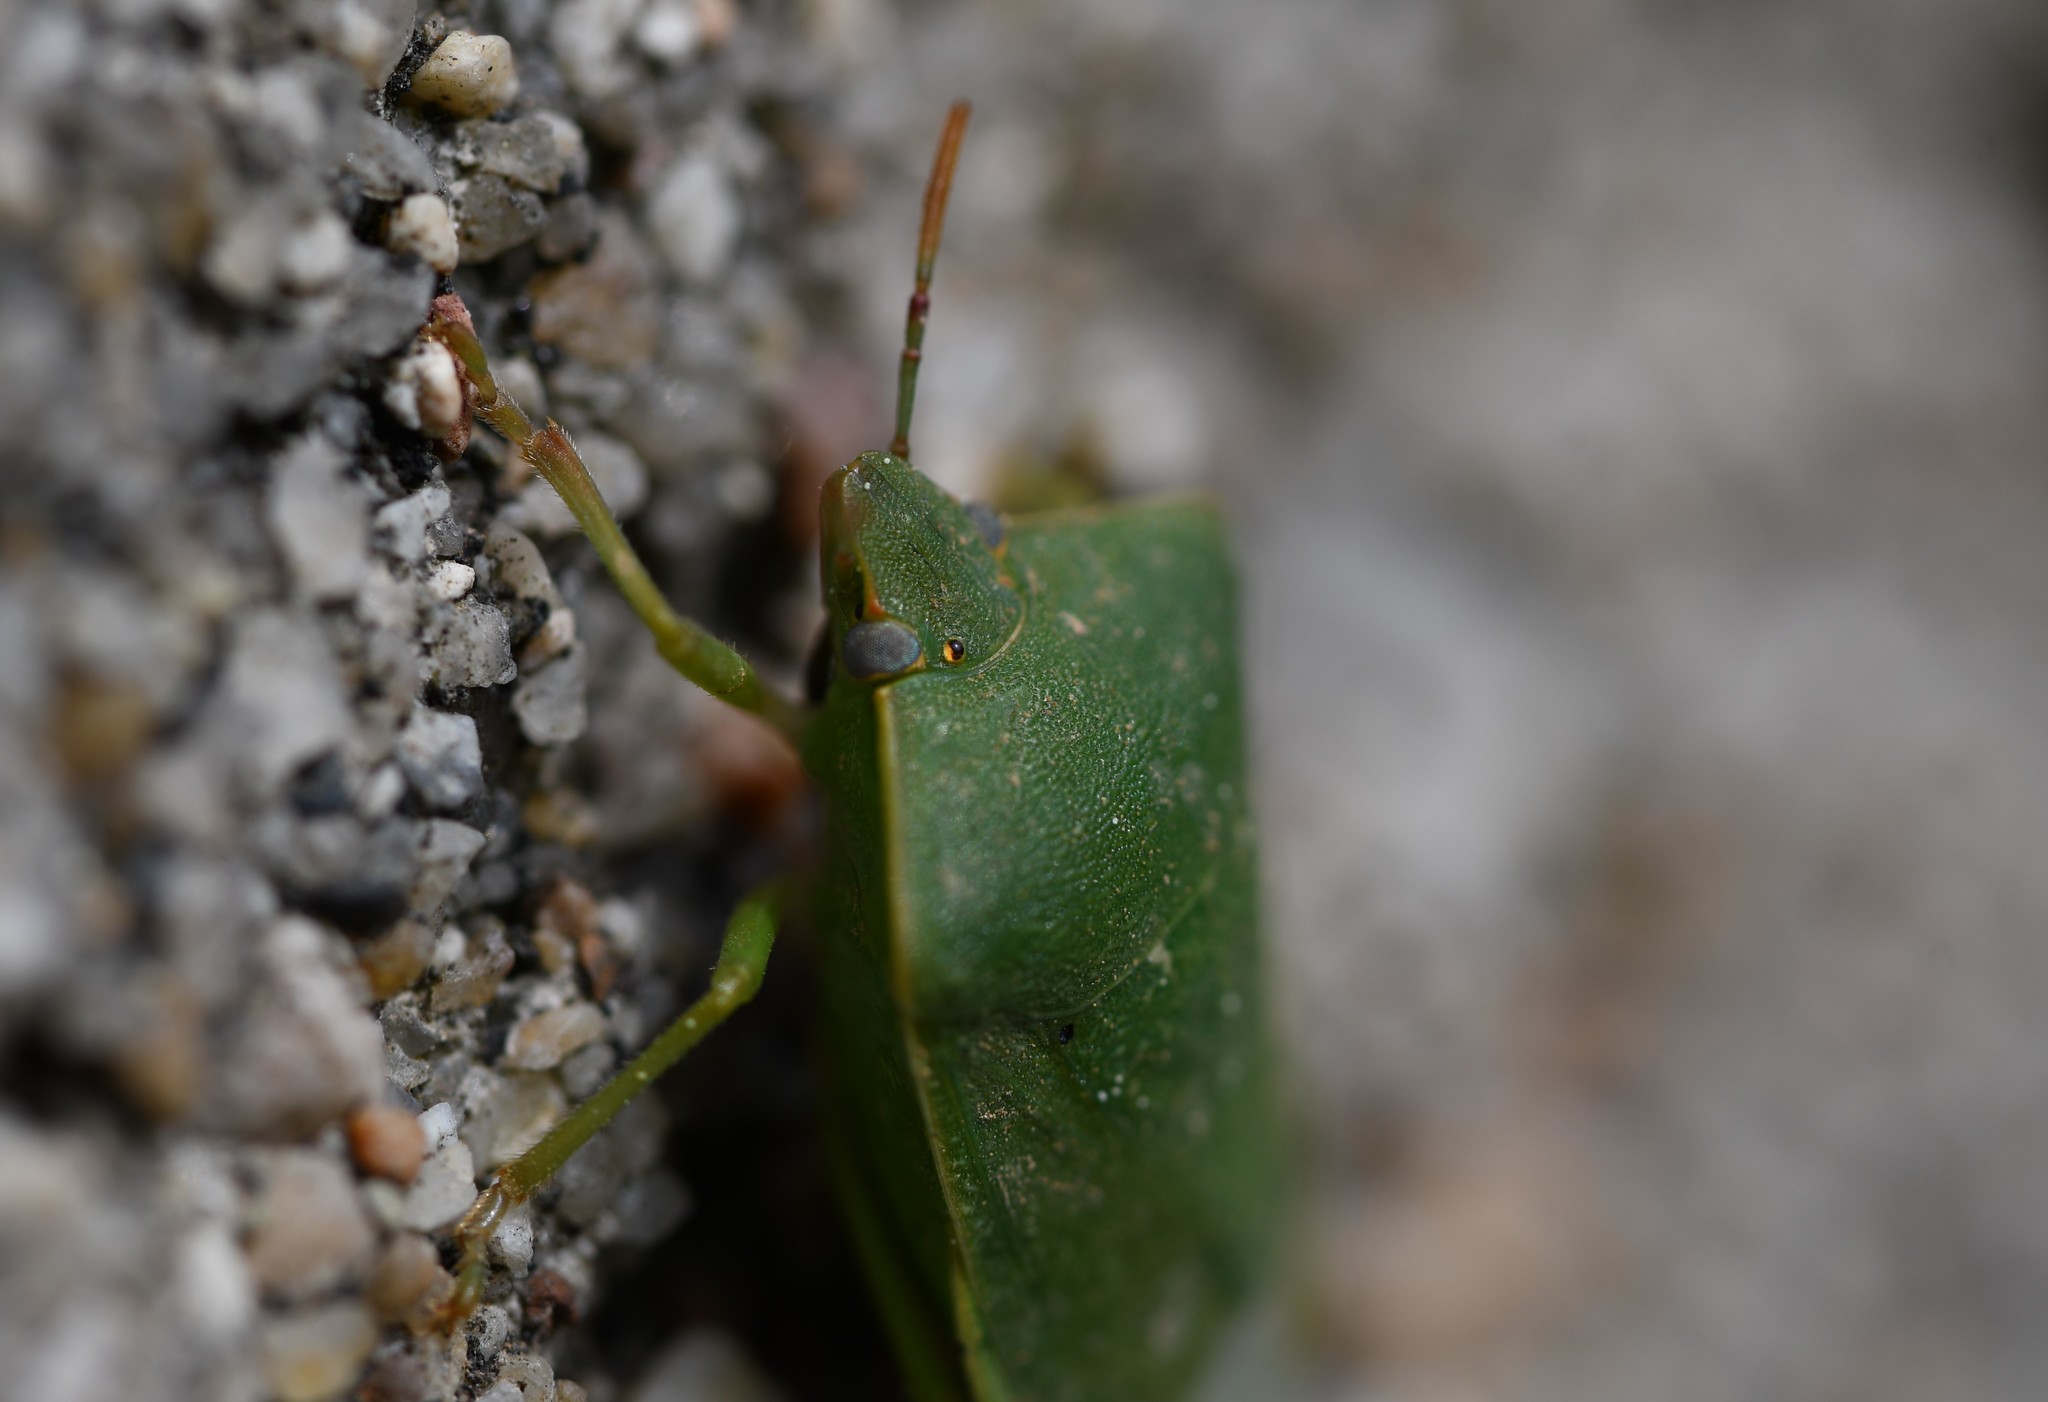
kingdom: Animalia
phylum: Arthropoda
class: Insecta
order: Hemiptera
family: Pentatomidae
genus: Nezara
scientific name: Nezara viridula
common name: Southern green stink bug
